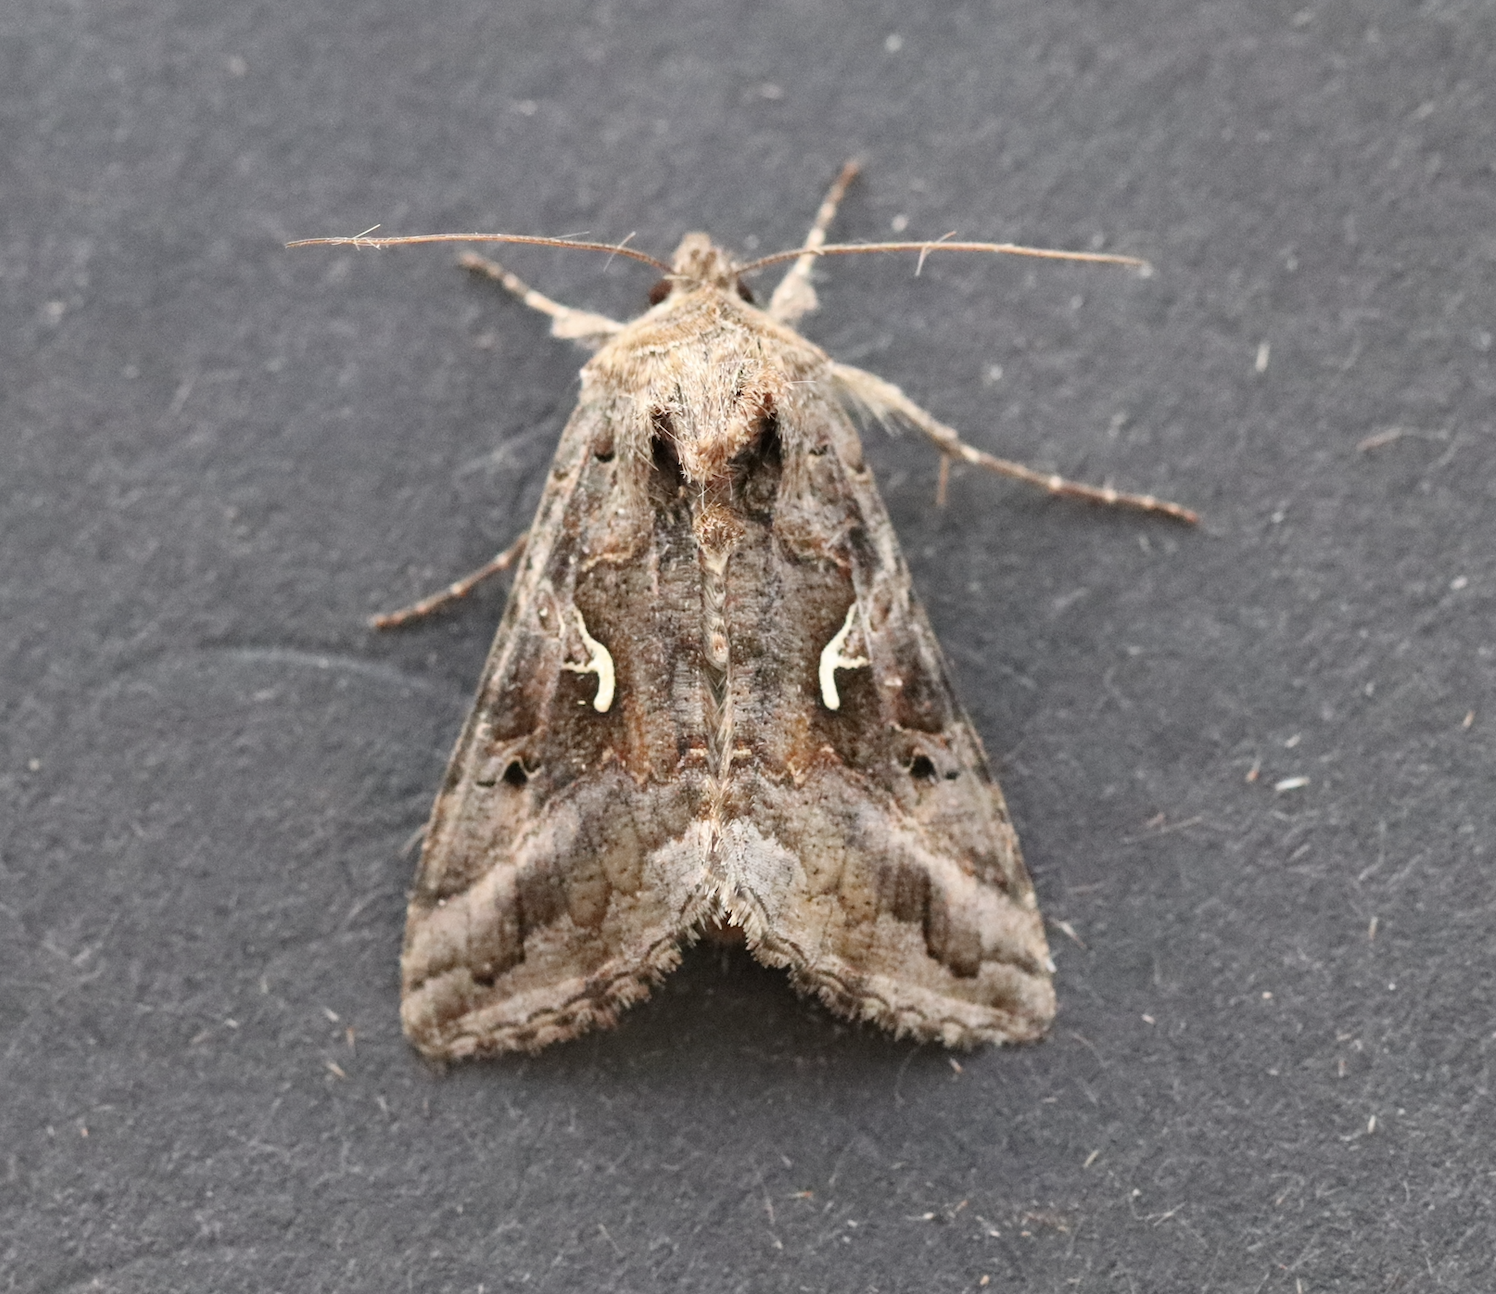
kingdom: Animalia
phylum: Arthropoda
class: Insecta
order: Lepidoptera
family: Noctuidae
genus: Autographa
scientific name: Autographa gamma
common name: Silver y
